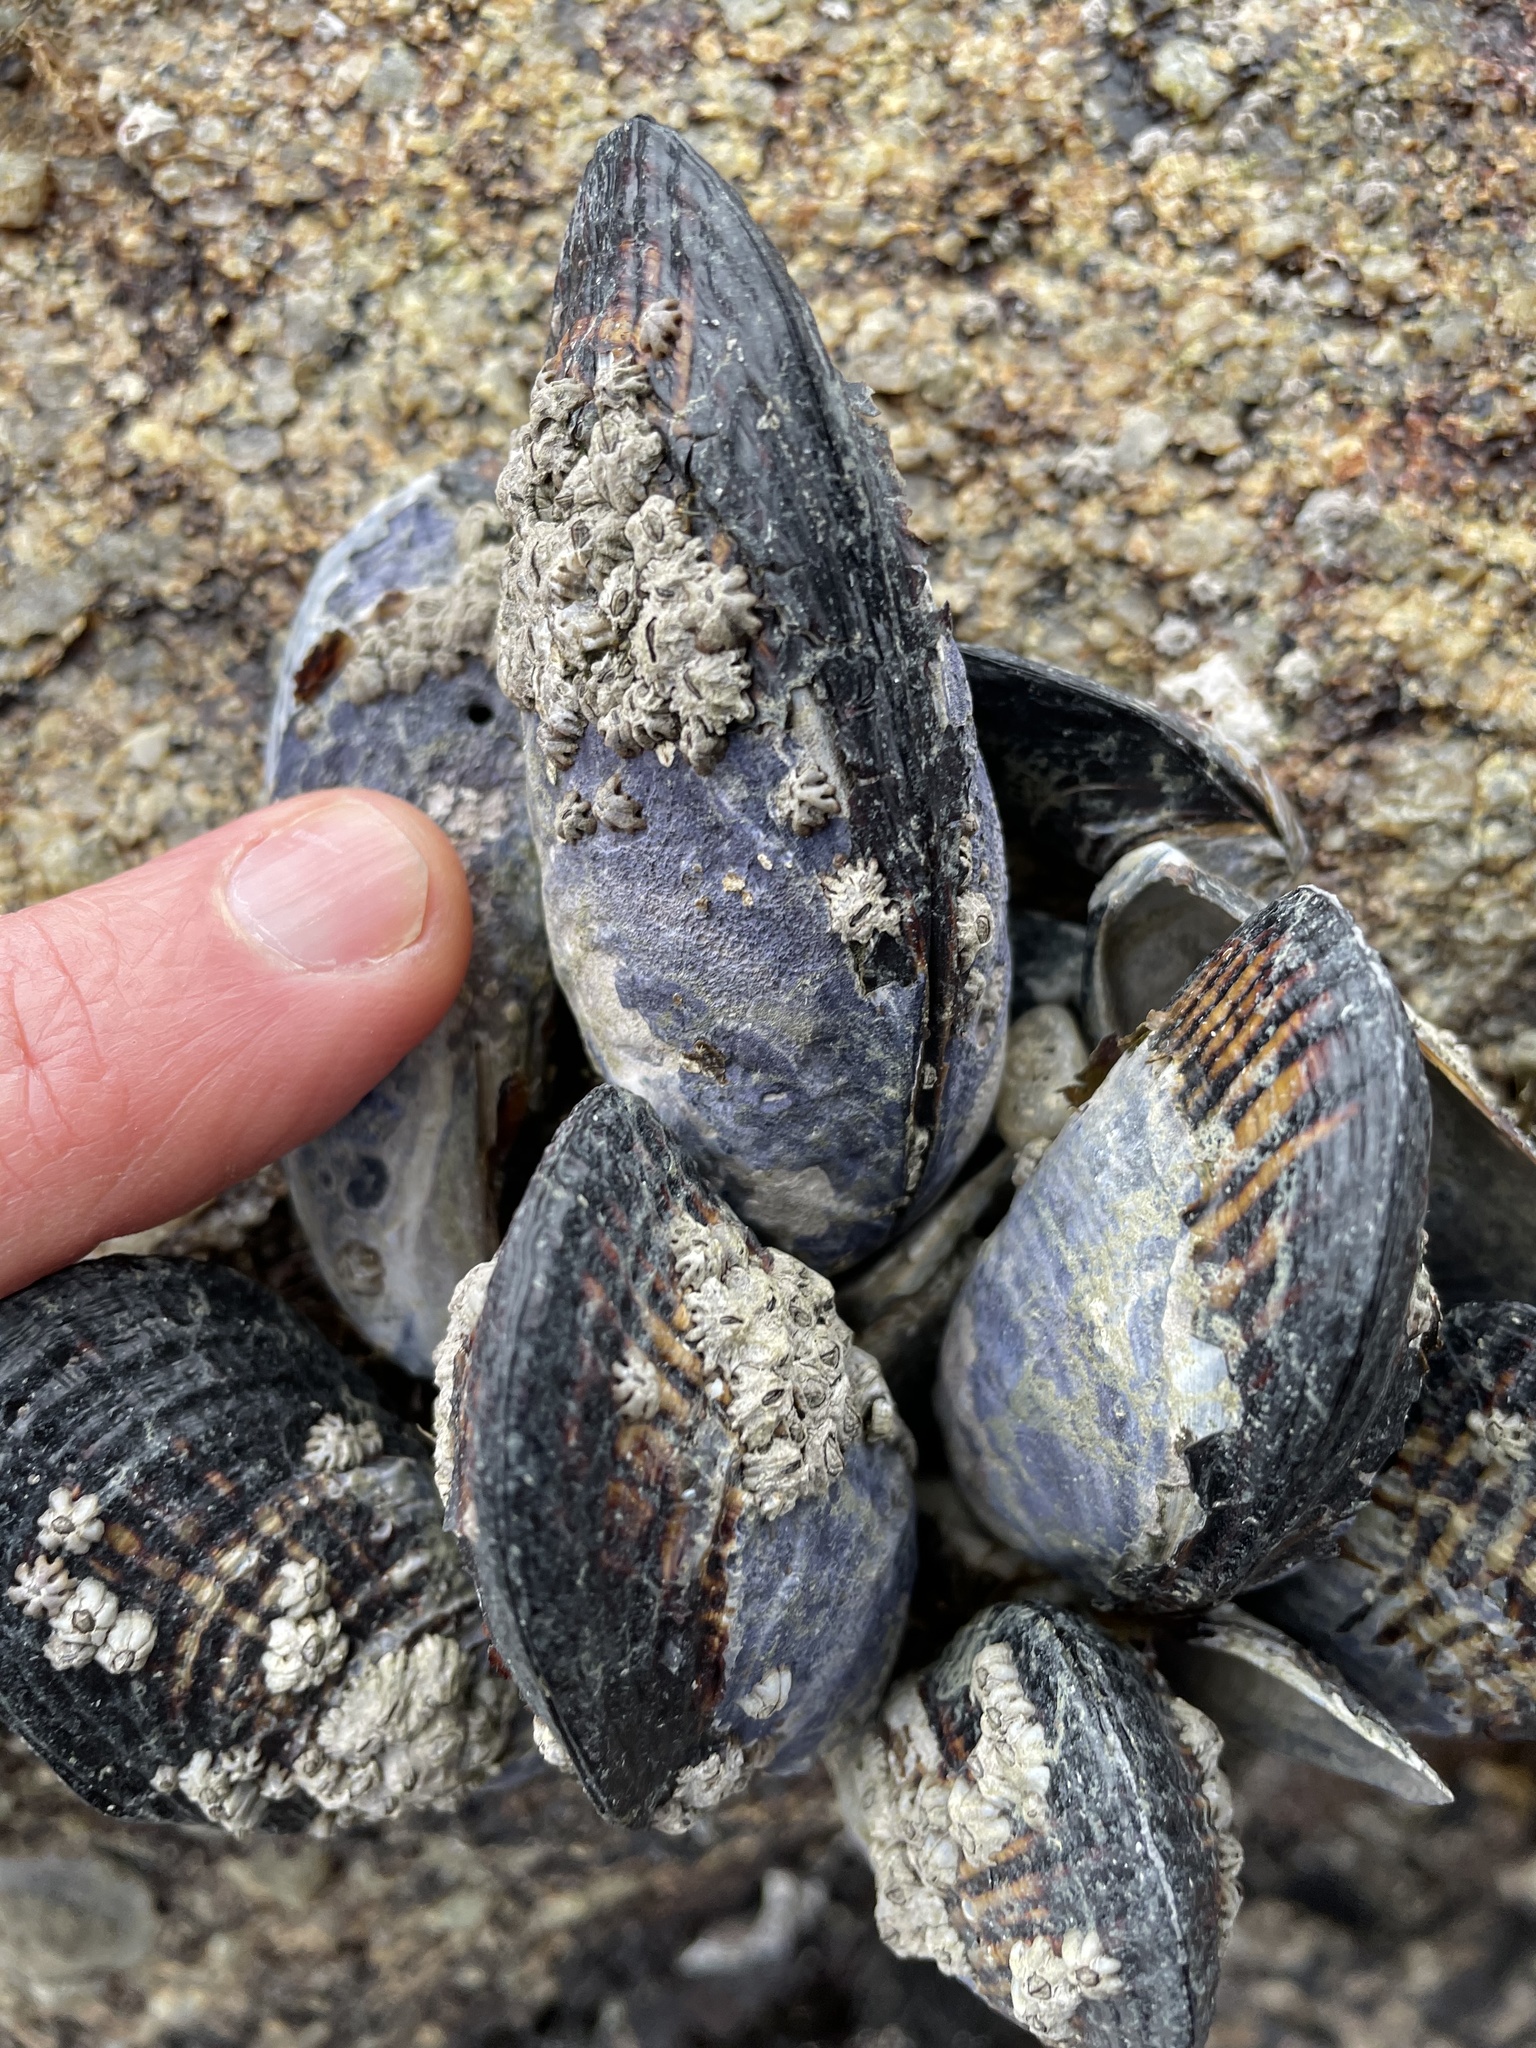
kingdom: Animalia
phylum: Mollusca
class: Bivalvia
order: Mytilida
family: Mytilidae
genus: Mytilus
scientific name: Mytilus californianus
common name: California mussel
